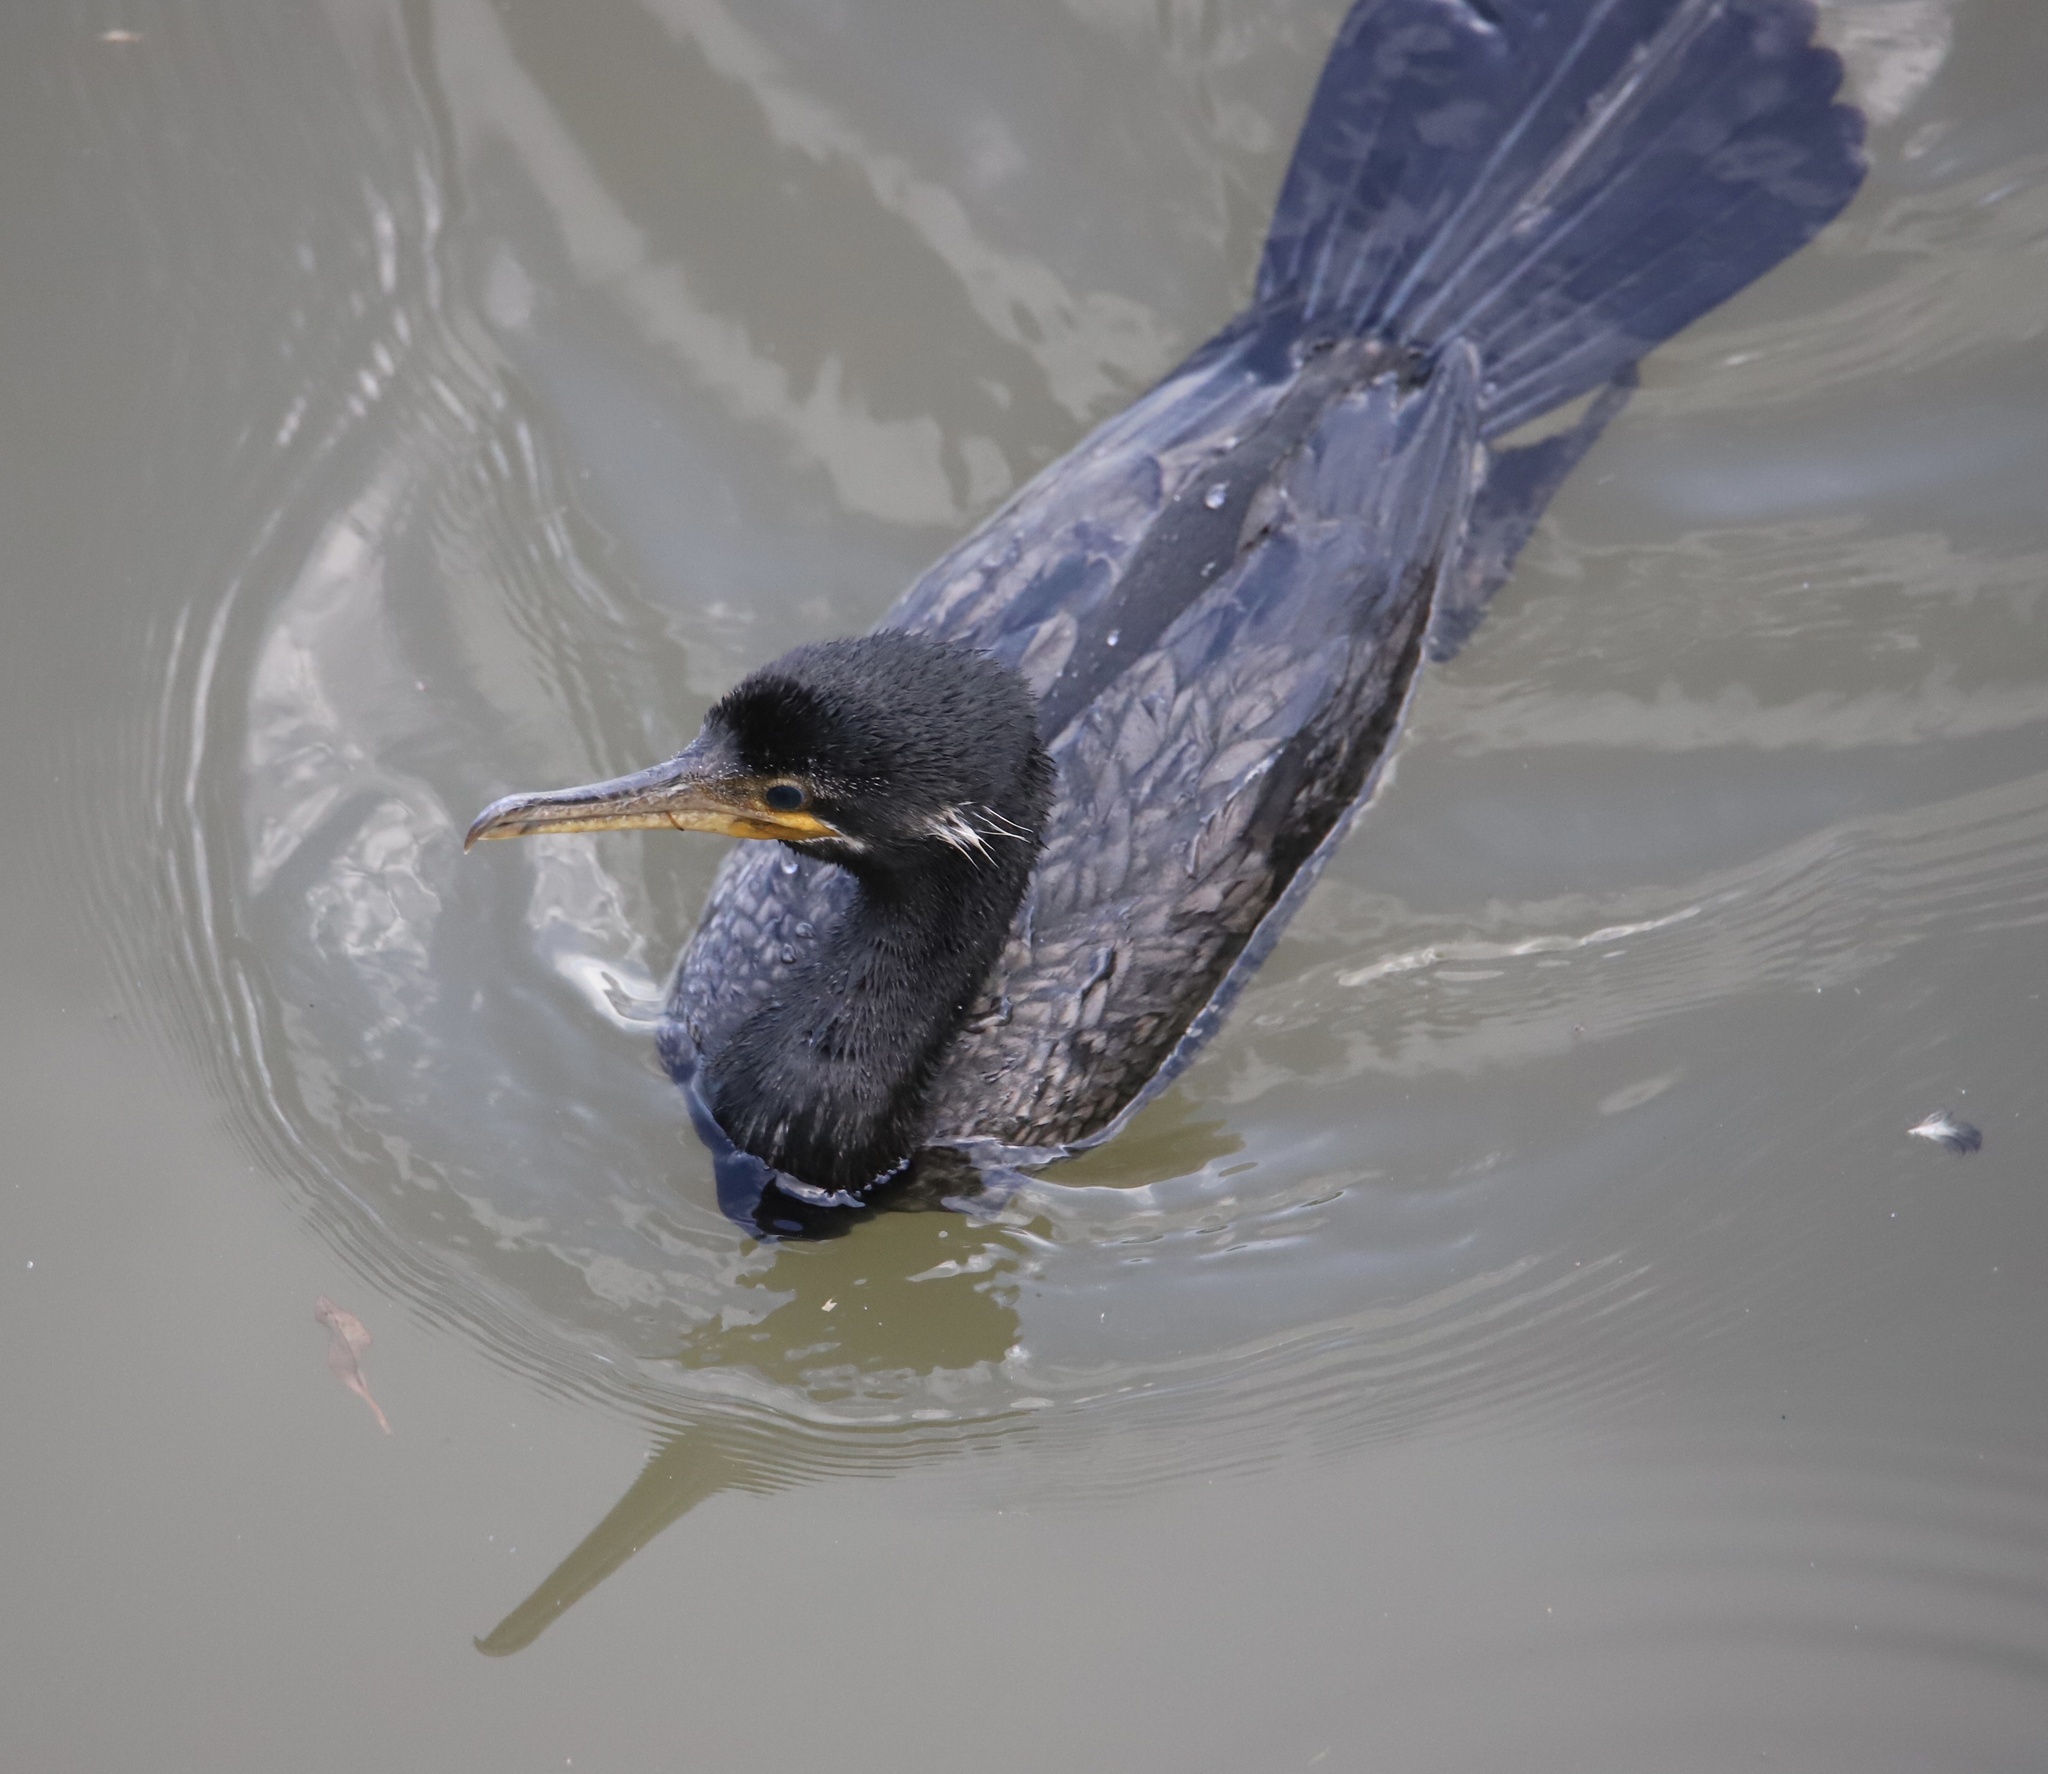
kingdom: Animalia
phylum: Chordata
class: Aves
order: Suliformes
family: Phalacrocoracidae
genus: Phalacrocorax
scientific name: Phalacrocorax brasilianus
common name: Neotropic cormorant
